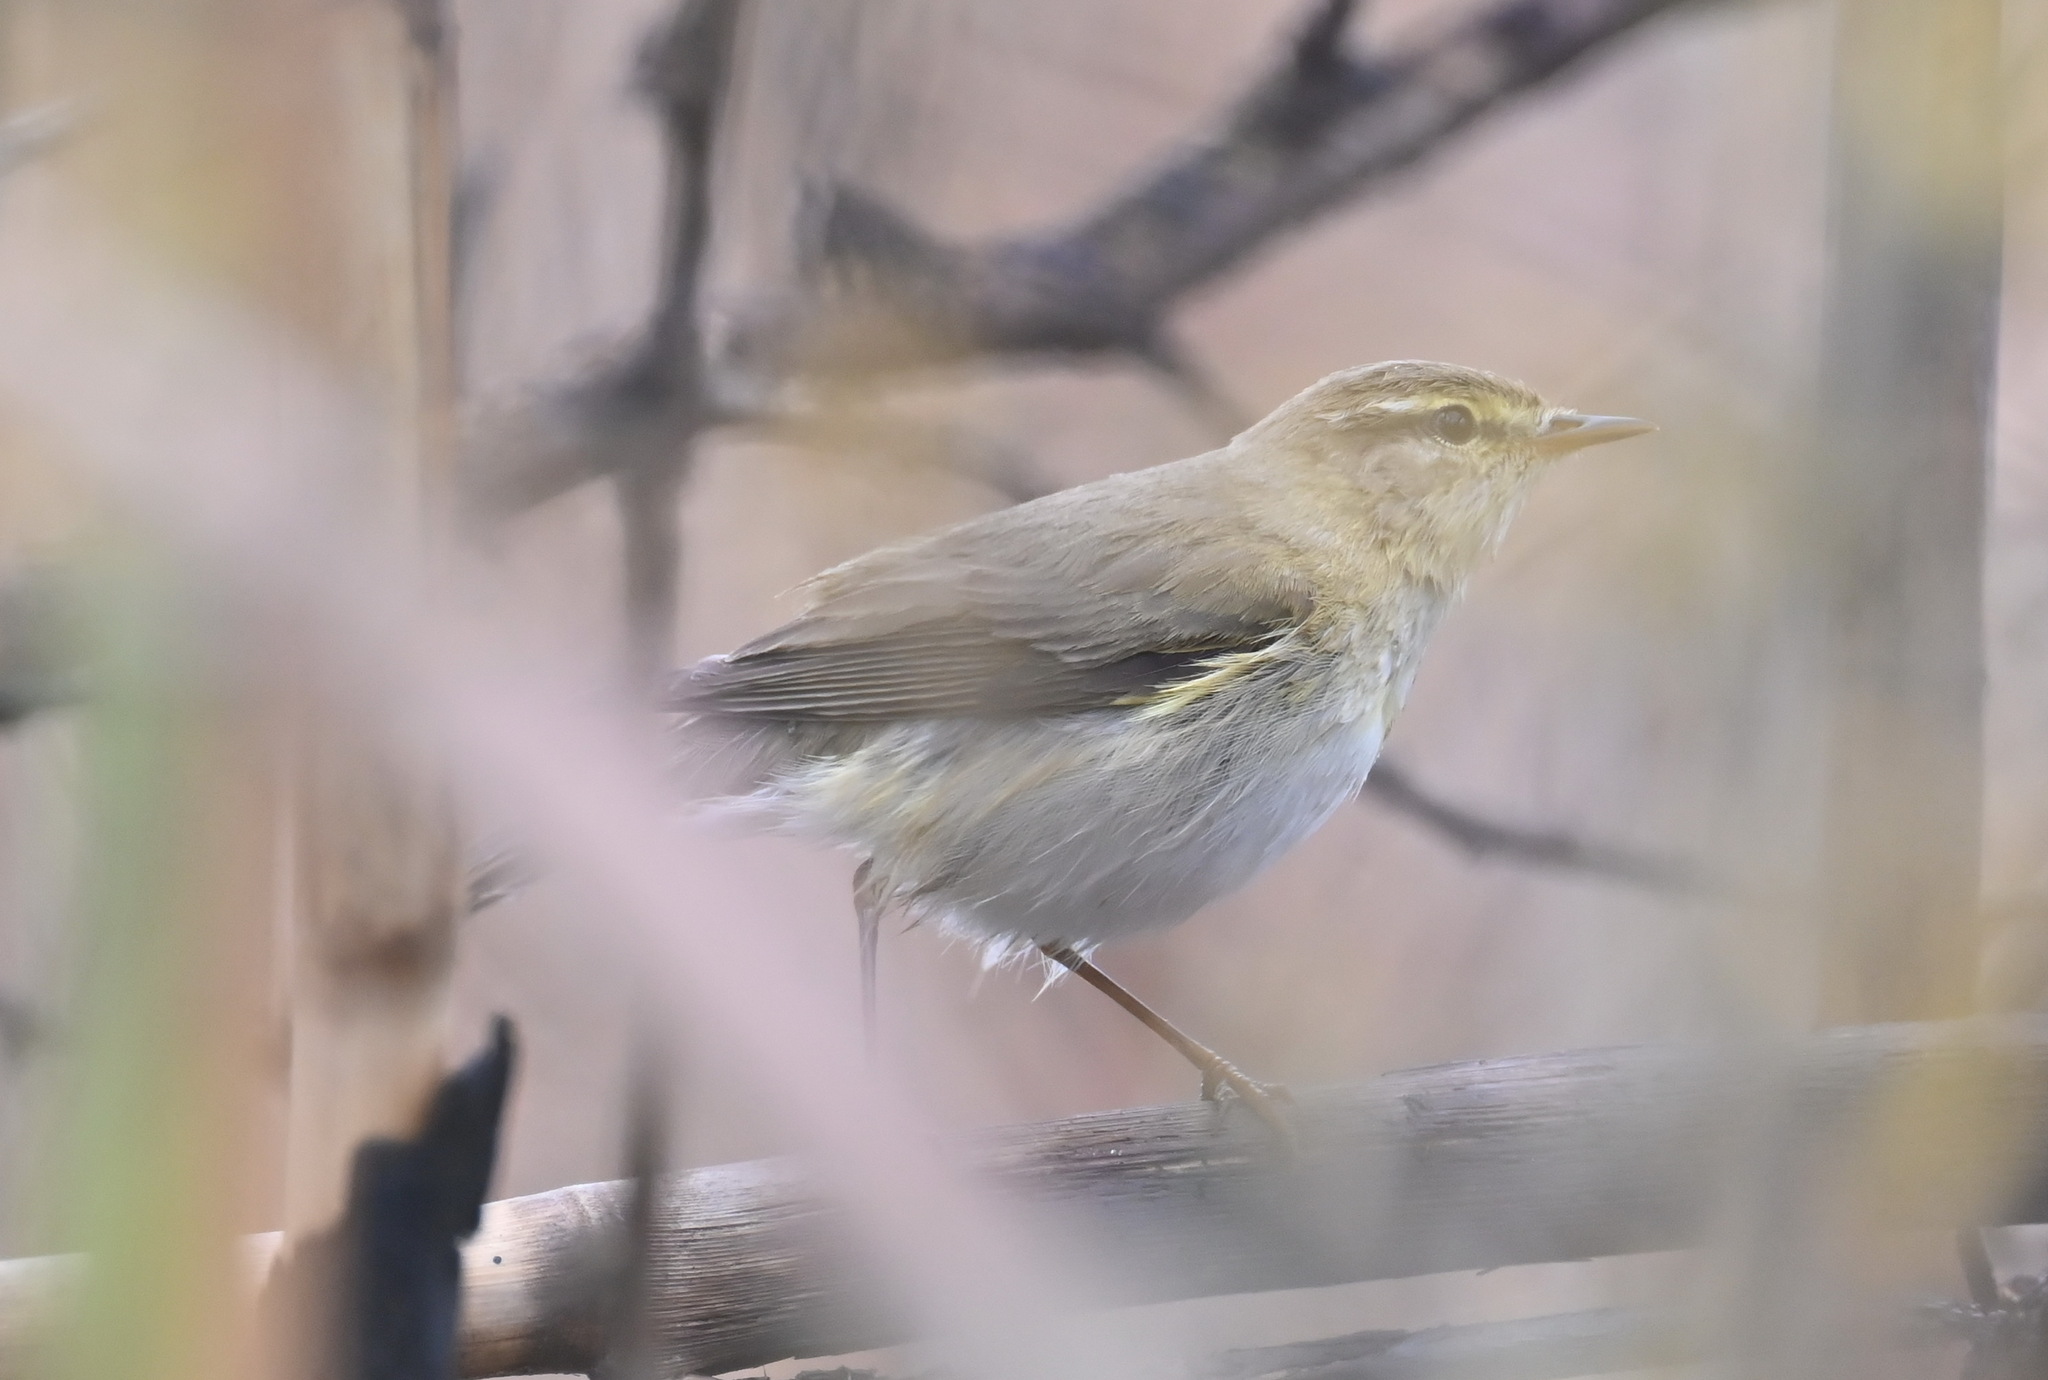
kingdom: Animalia
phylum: Chordata
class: Aves
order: Passeriformes
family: Phylloscopidae
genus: Phylloscopus
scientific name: Phylloscopus trochilus
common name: Willow warbler
